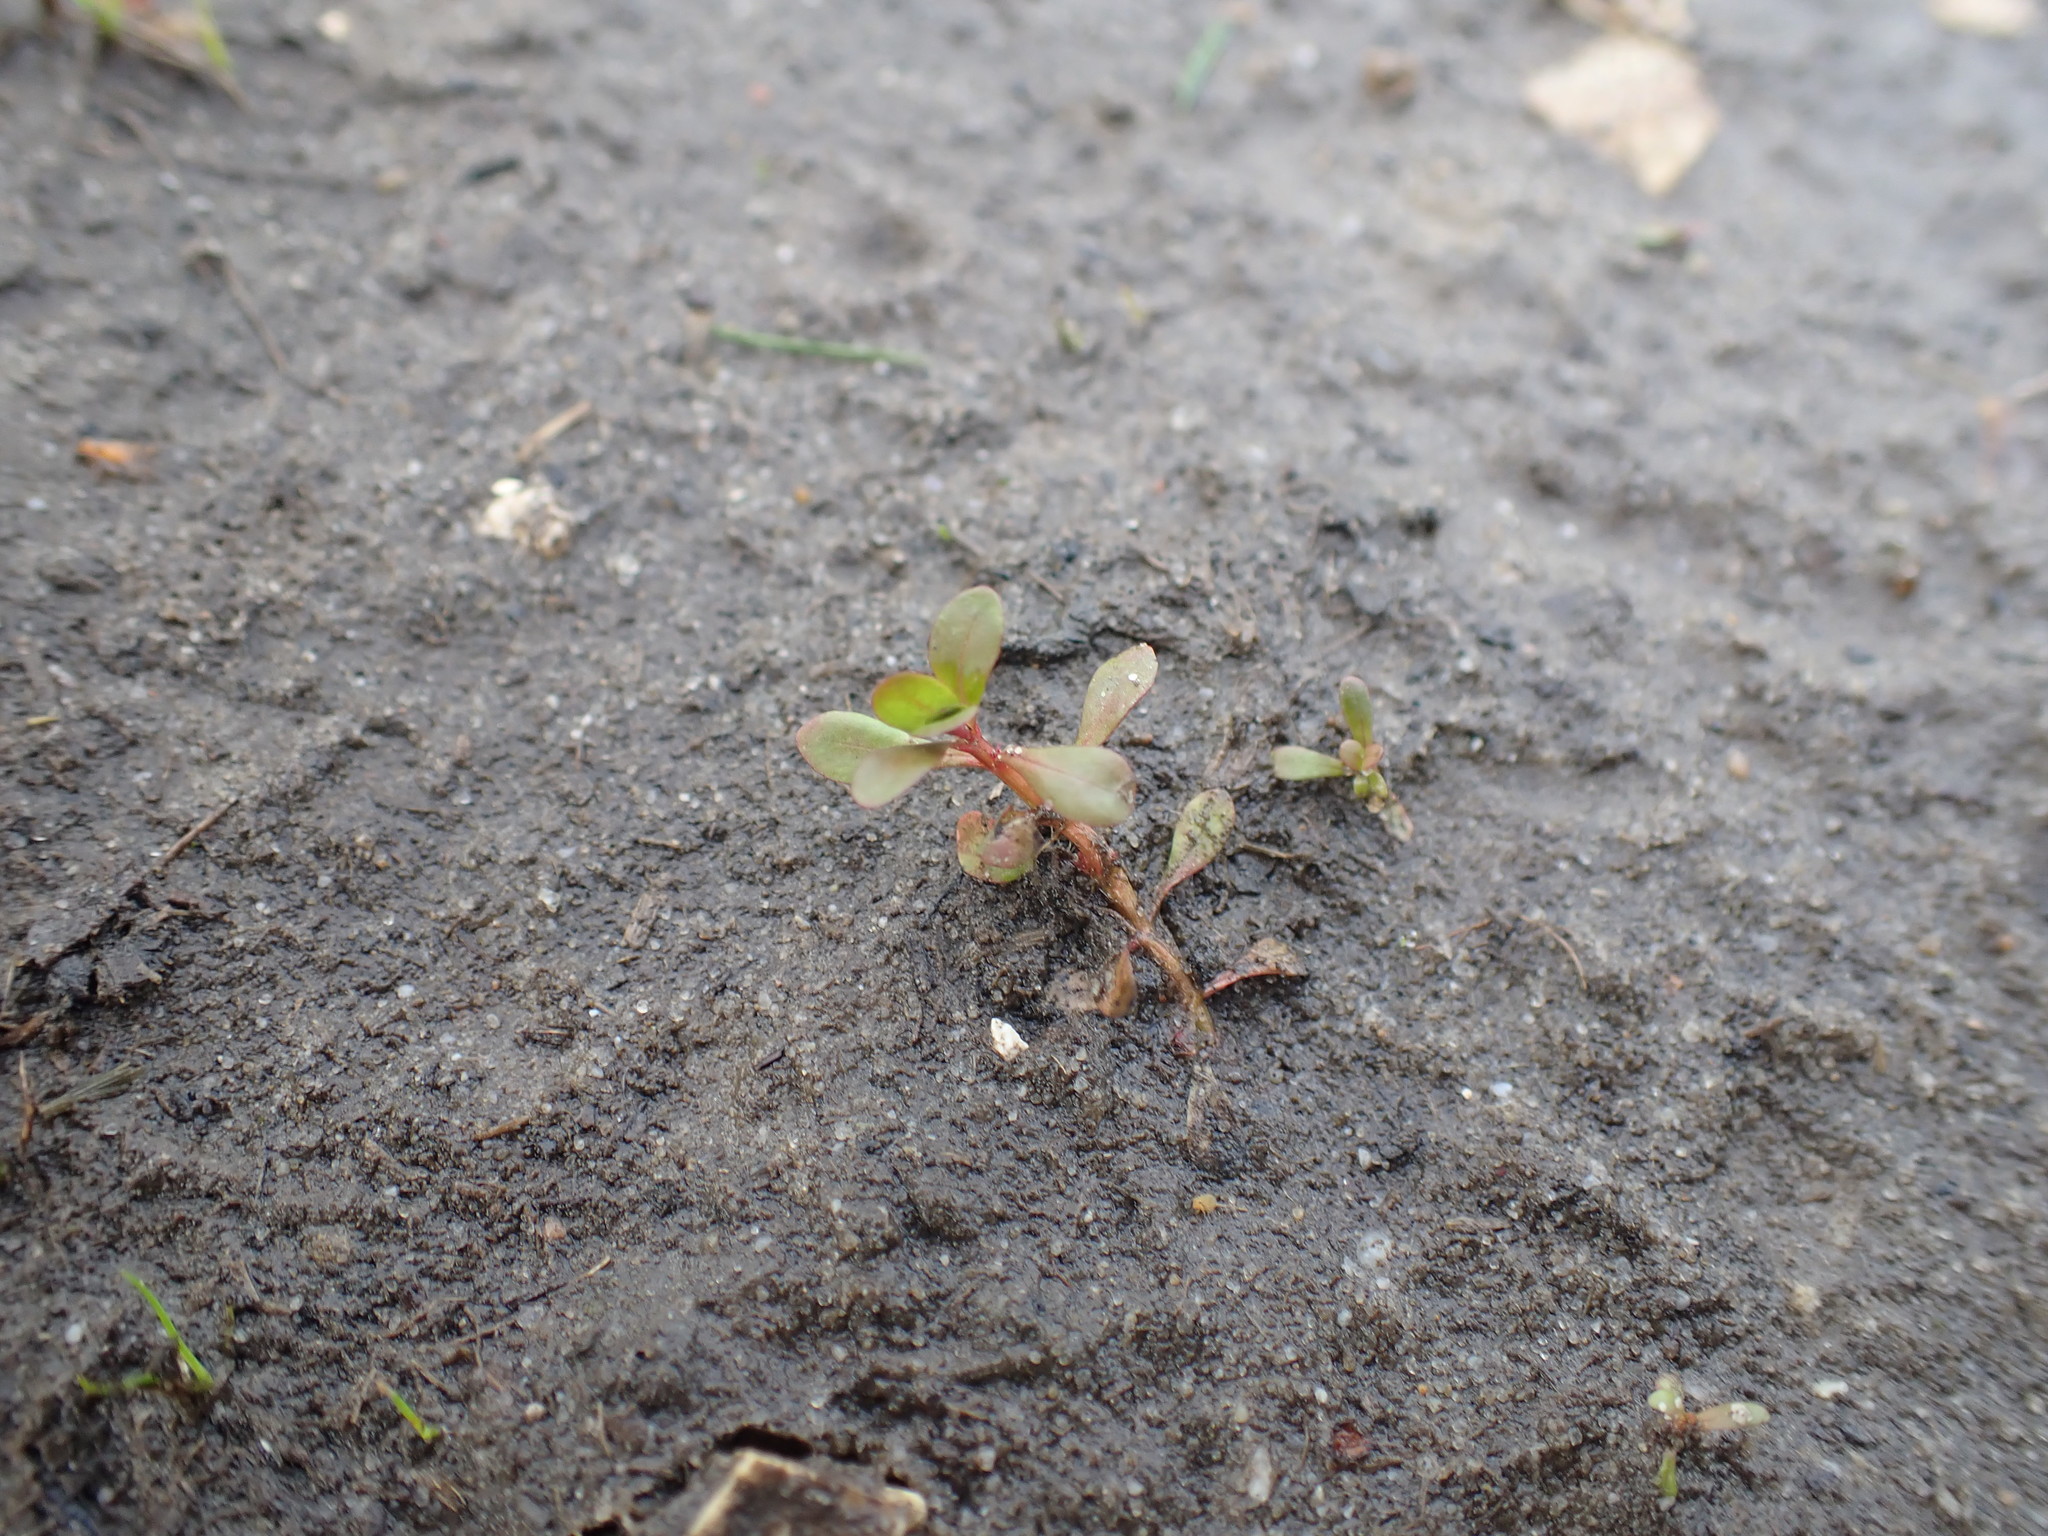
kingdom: Plantae
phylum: Tracheophyta
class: Magnoliopsida
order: Myrtales
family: Lythraceae
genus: Lythrum
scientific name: Lythrum portula
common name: Water purslane
